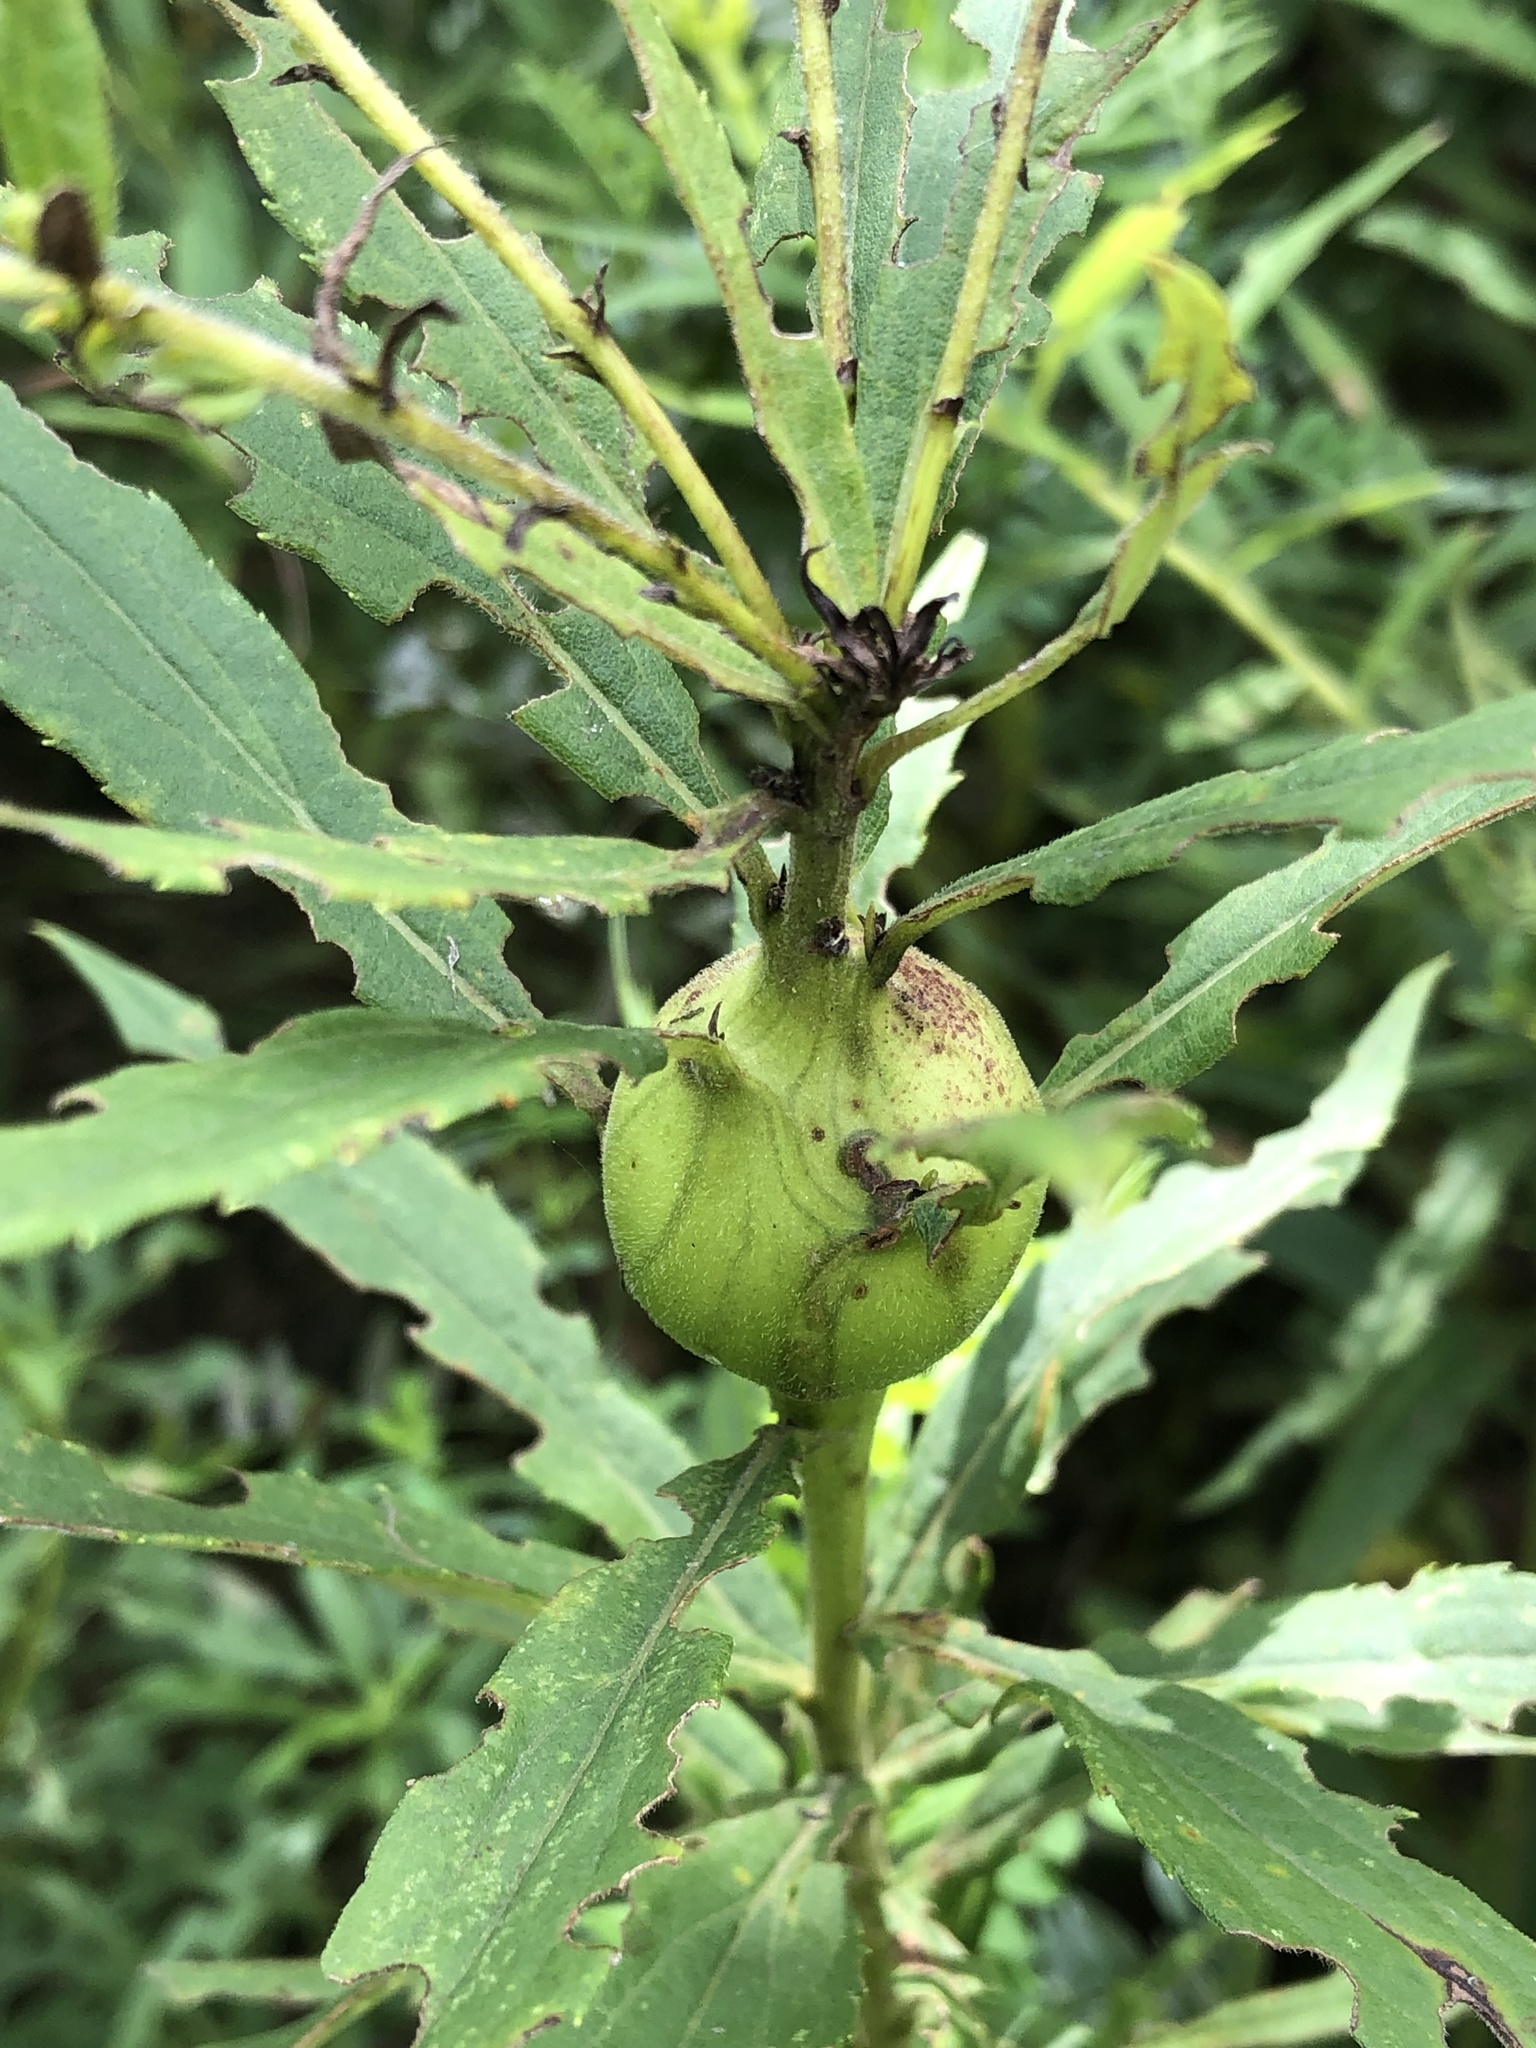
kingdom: Animalia
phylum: Arthropoda
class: Insecta
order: Diptera
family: Tephritidae
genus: Eurosta
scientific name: Eurosta solidaginis
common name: Goldenrod gall fly
